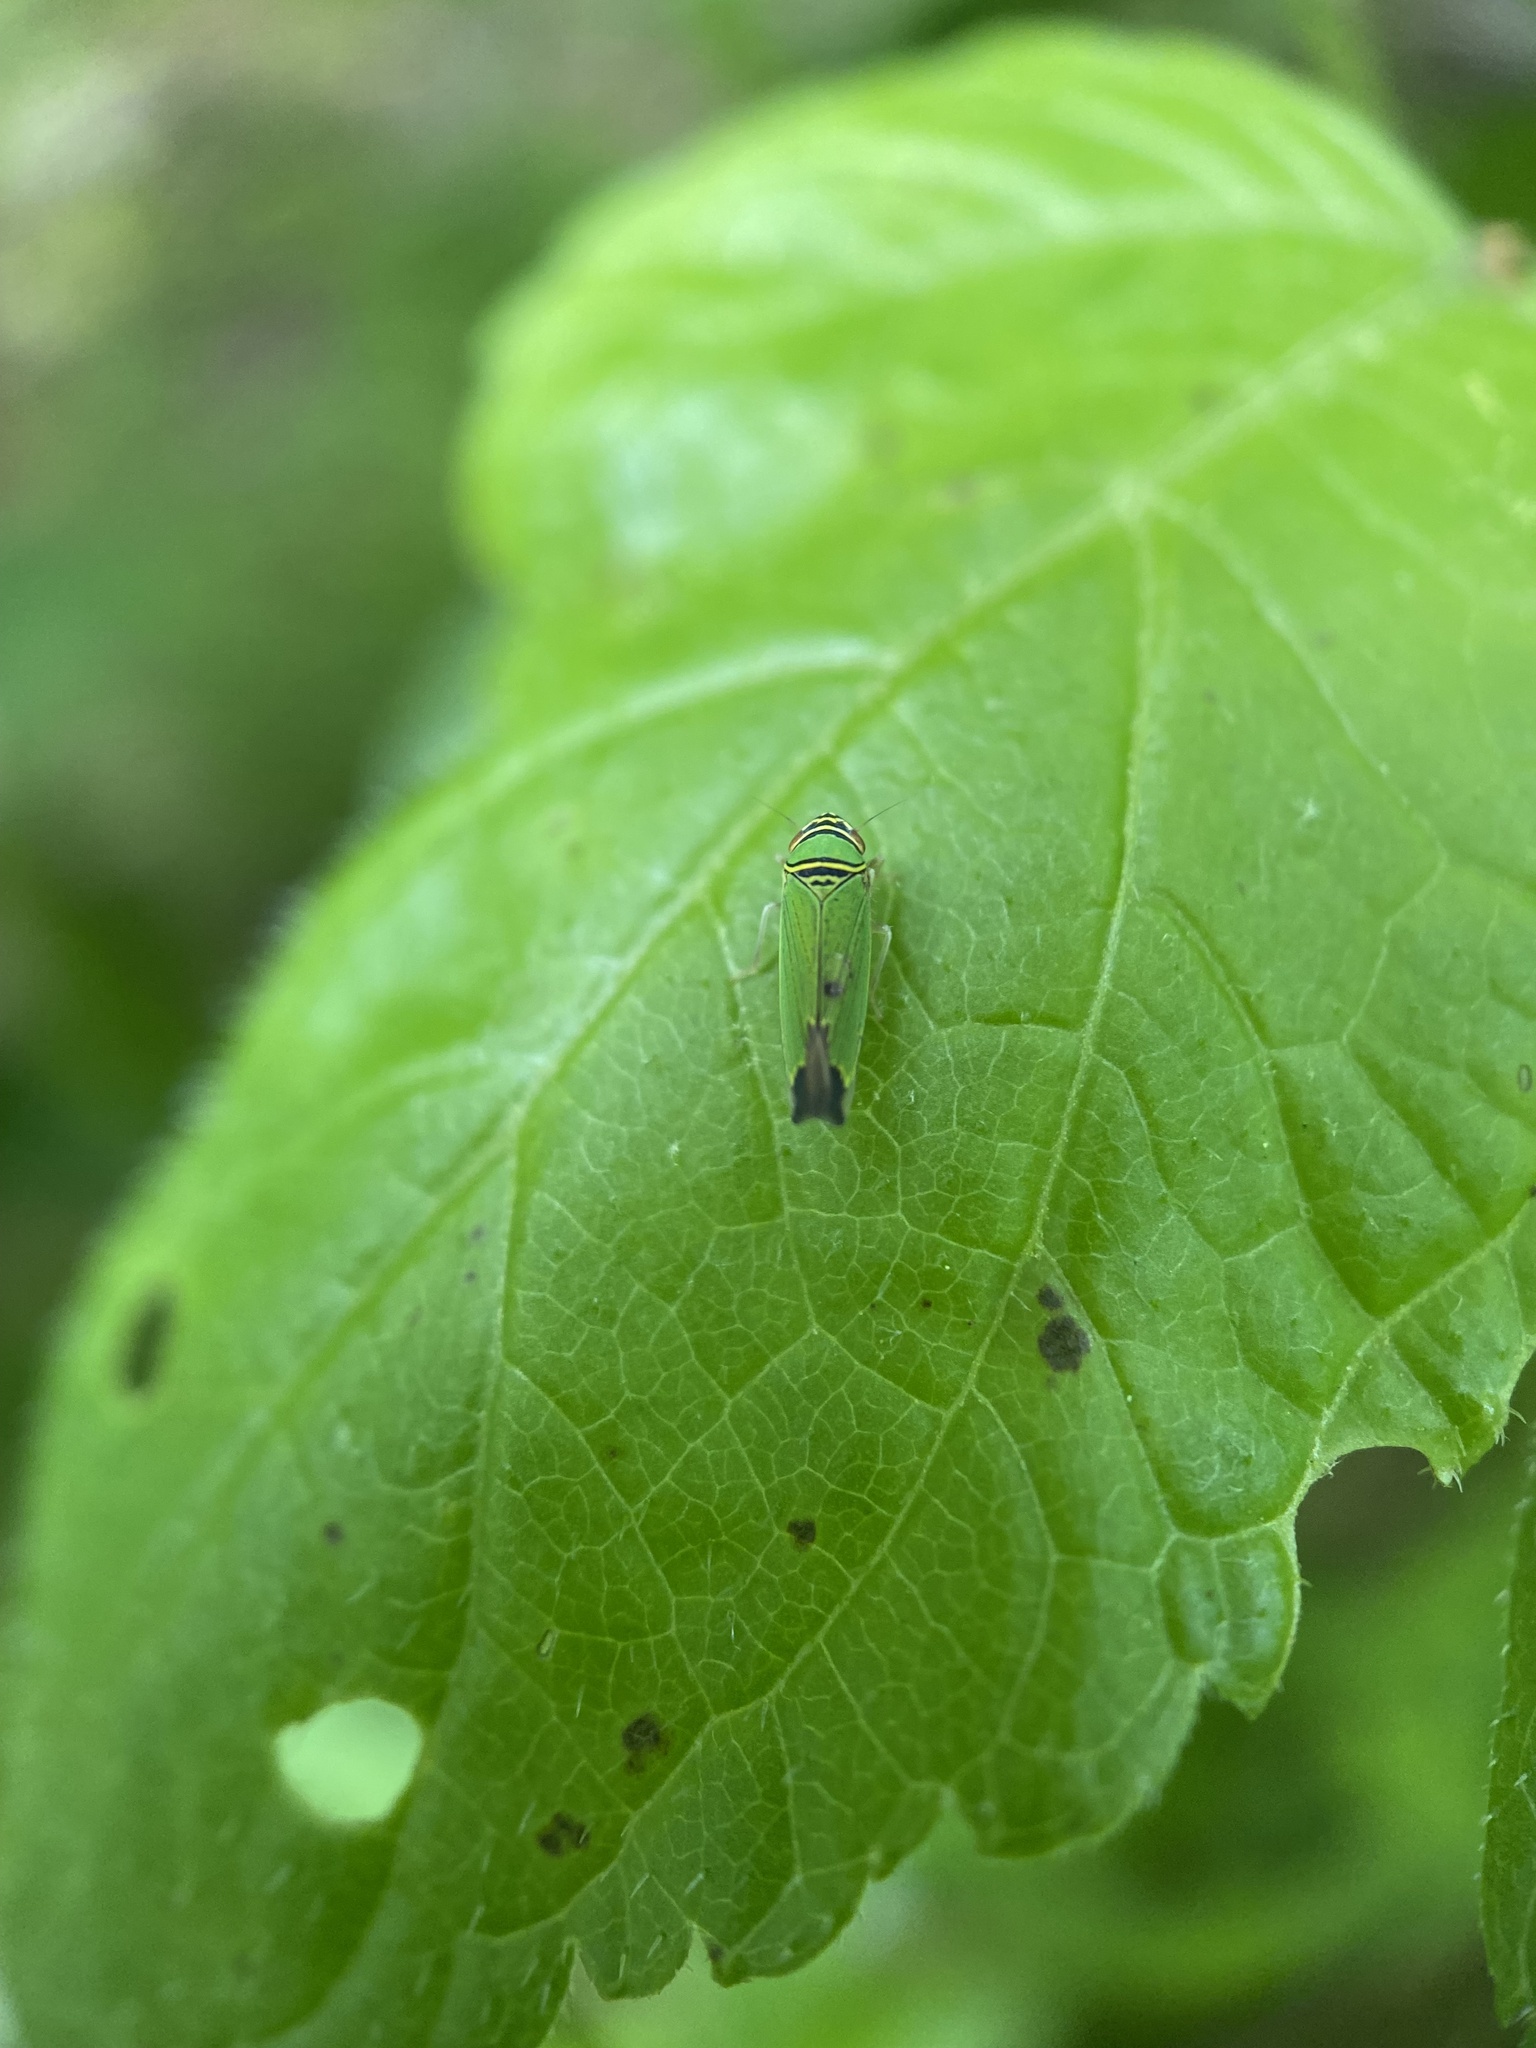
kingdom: Animalia
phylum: Arthropoda
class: Insecta
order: Hemiptera
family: Cicadellidae
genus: Tylozygus
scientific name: Tylozygus geometricus
